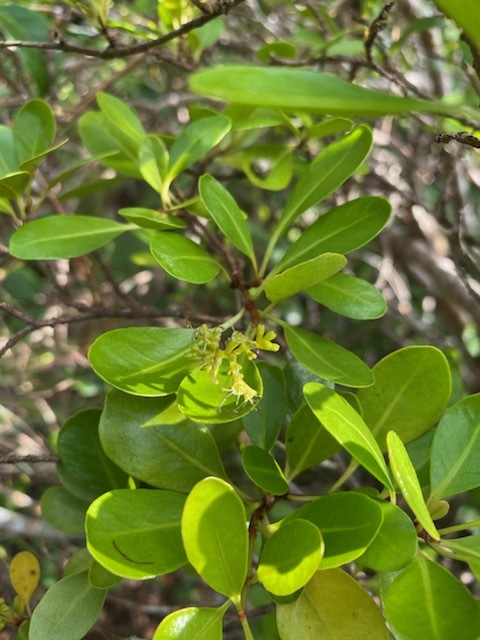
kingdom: Plantae
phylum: Tracheophyta
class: Magnoliopsida
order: Caryophyllales
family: Nyctaginaceae
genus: Guapira
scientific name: Guapira discolor
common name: Beeftree
